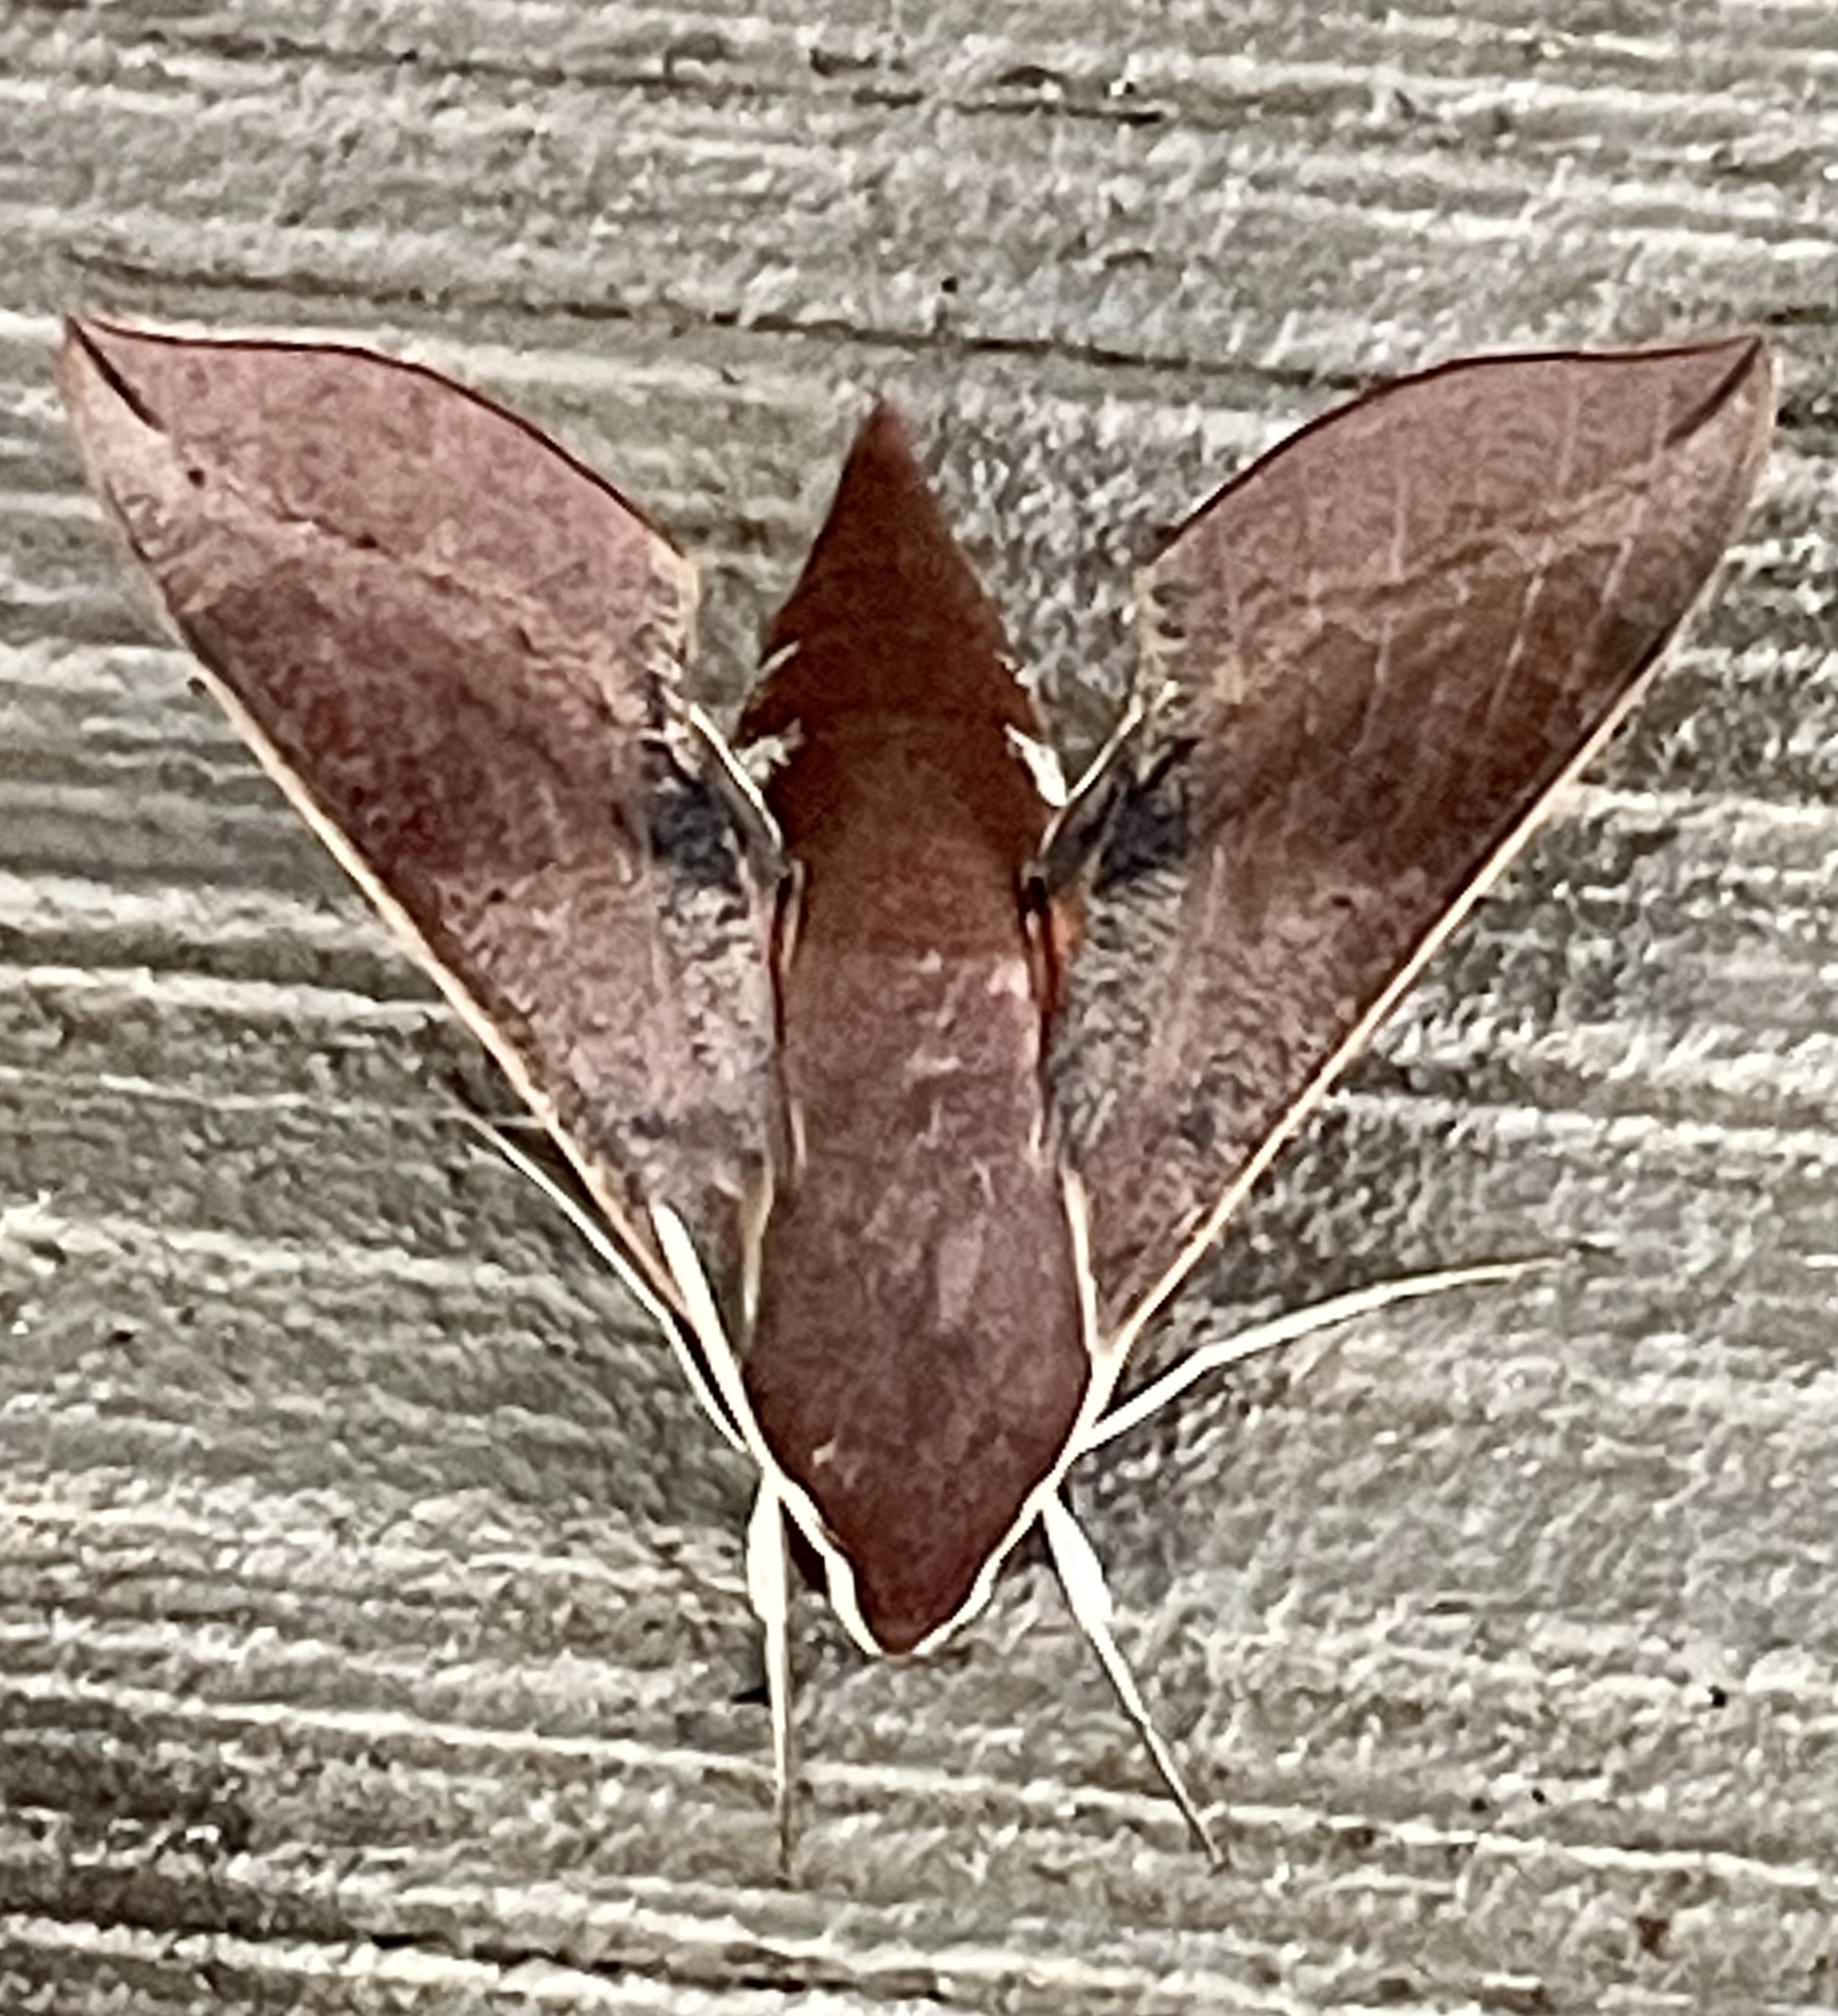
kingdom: Animalia
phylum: Arthropoda
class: Insecta
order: Lepidoptera
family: Sphingidae
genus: Hippotion
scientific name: Hippotion scrofa
